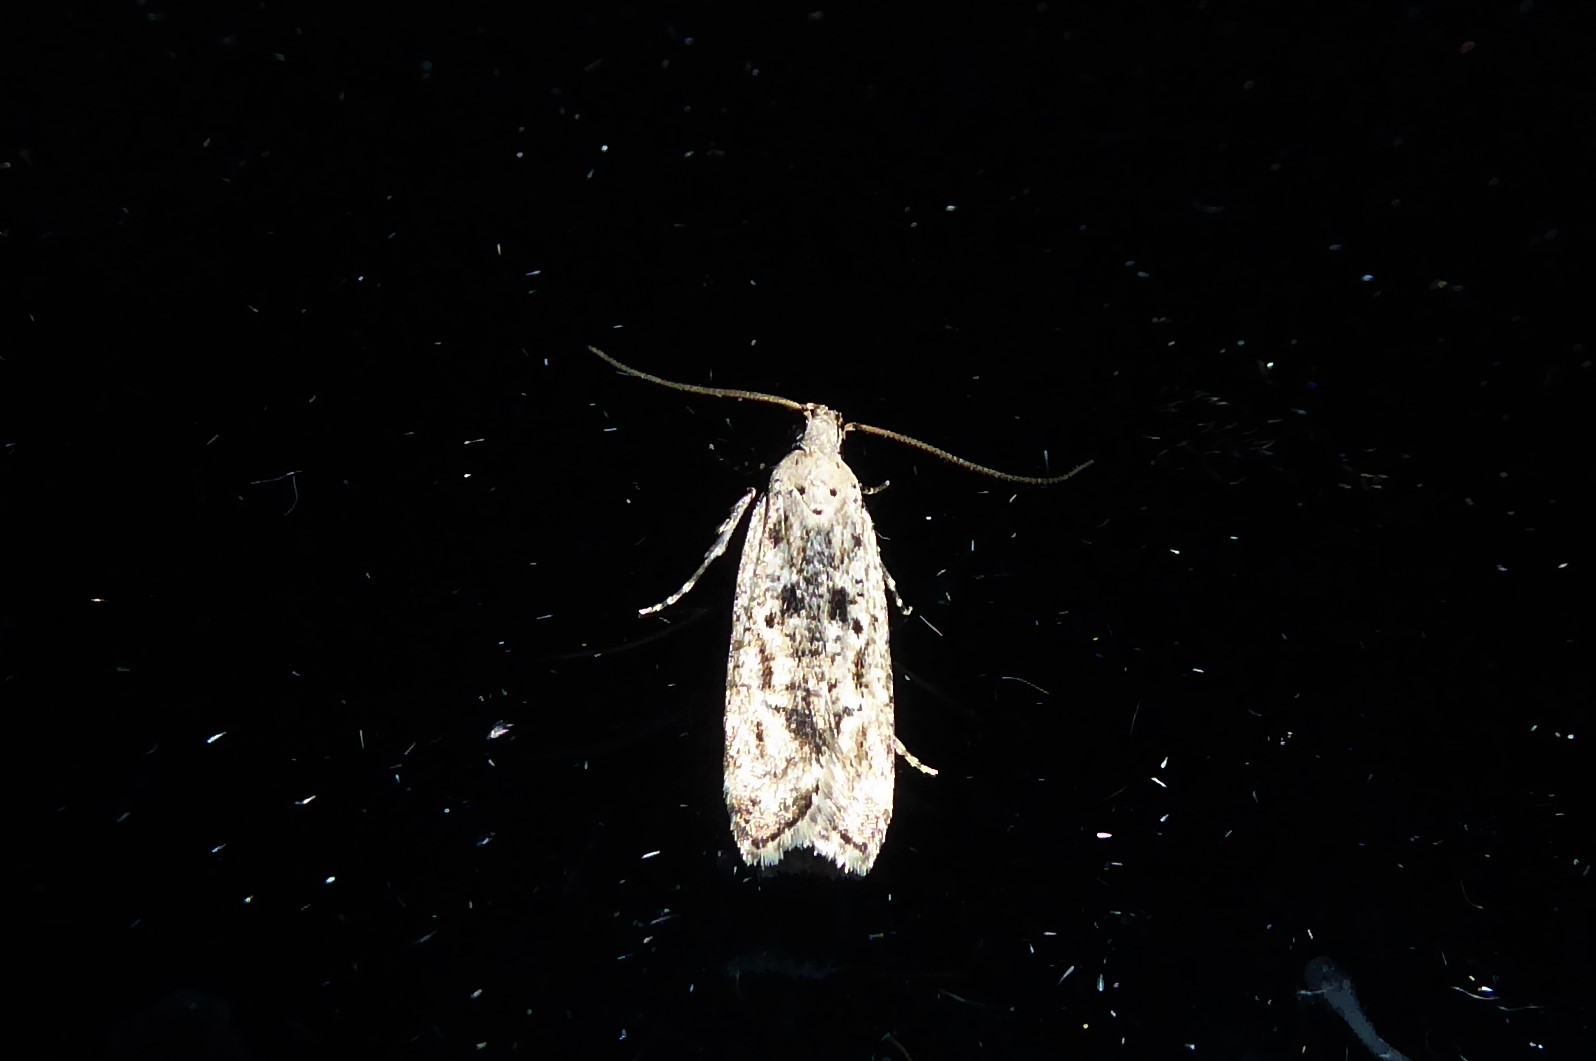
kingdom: Animalia
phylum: Arthropoda
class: Insecta
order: Lepidoptera
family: Gelechiidae
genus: Anisoplaca
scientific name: Anisoplaca achyrota
